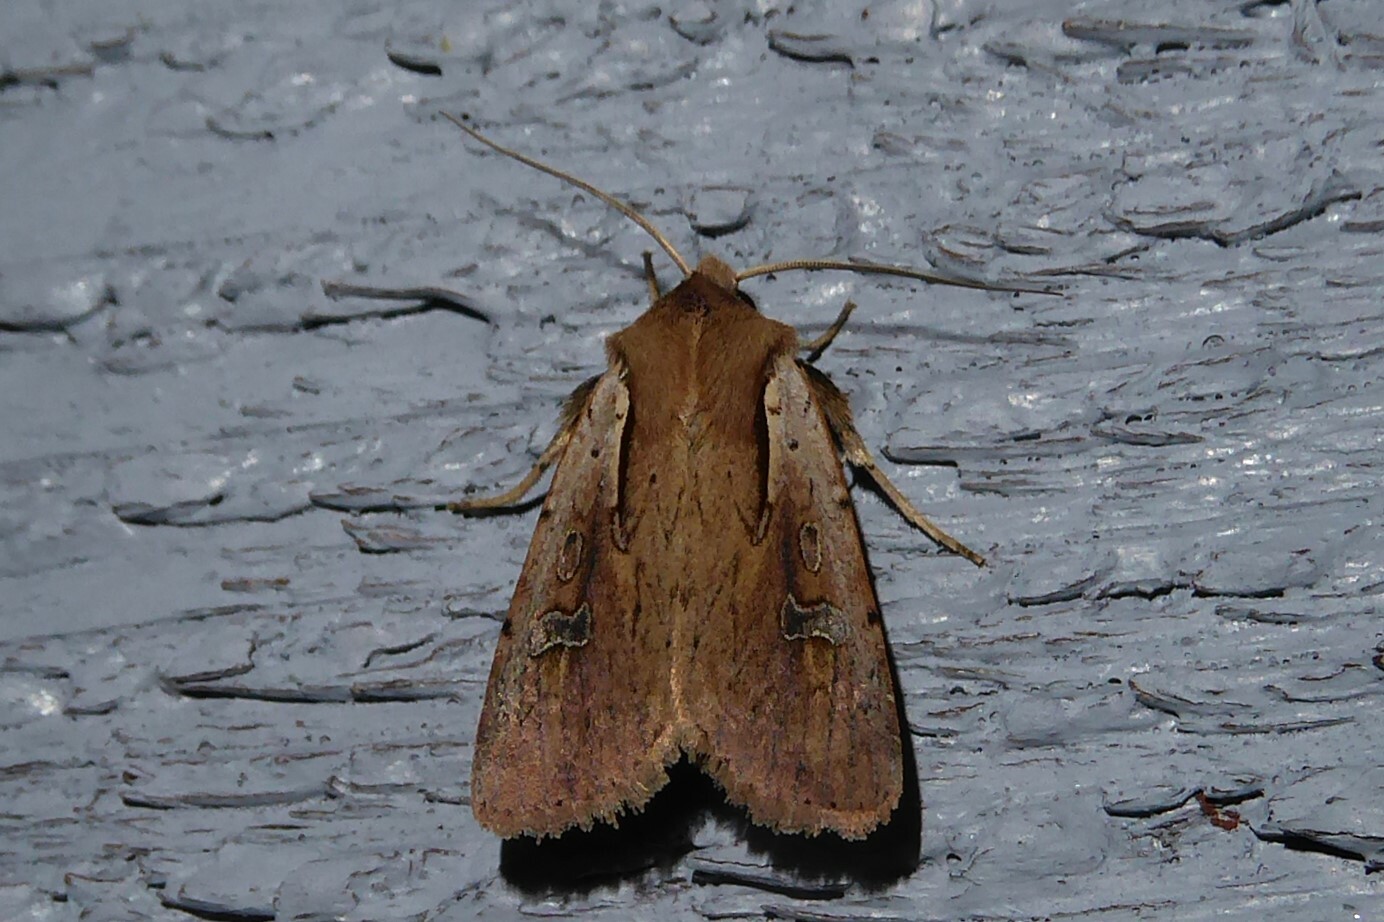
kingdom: Animalia
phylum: Arthropoda
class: Insecta
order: Lepidoptera
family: Noctuidae
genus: Ichneutica
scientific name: Ichneutica atristriga
